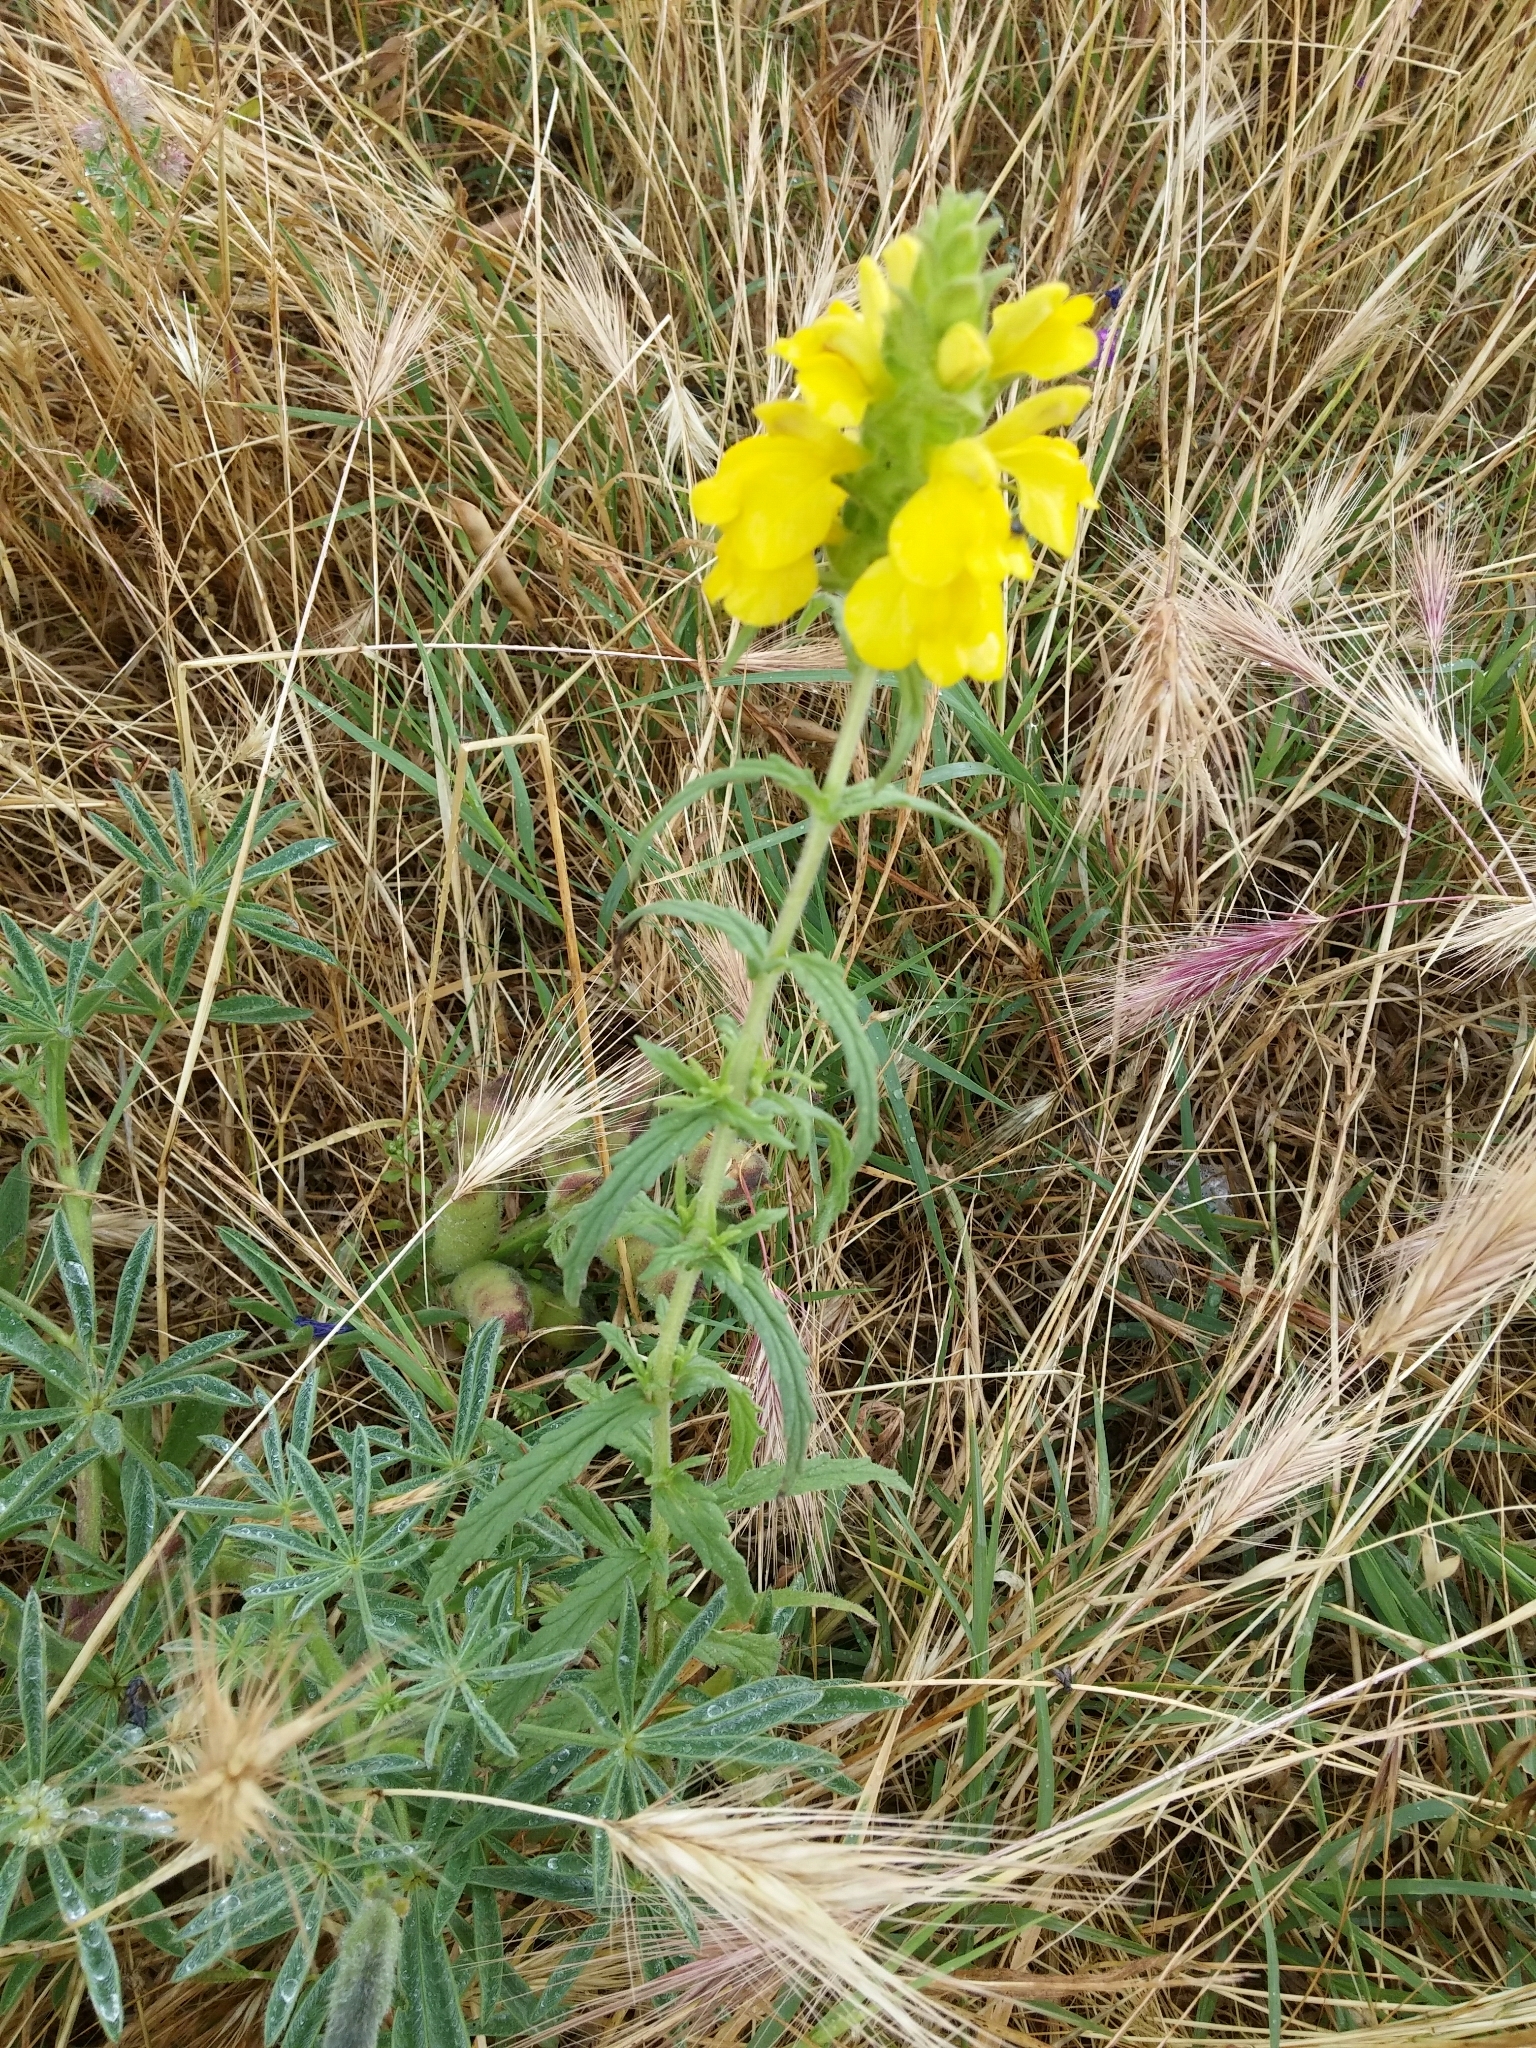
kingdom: Plantae
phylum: Tracheophyta
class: Magnoliopsida
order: Lamiales
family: Orobanchaceae
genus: Bellardia
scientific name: Bellardia trixago
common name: Mediterranean lineseed
